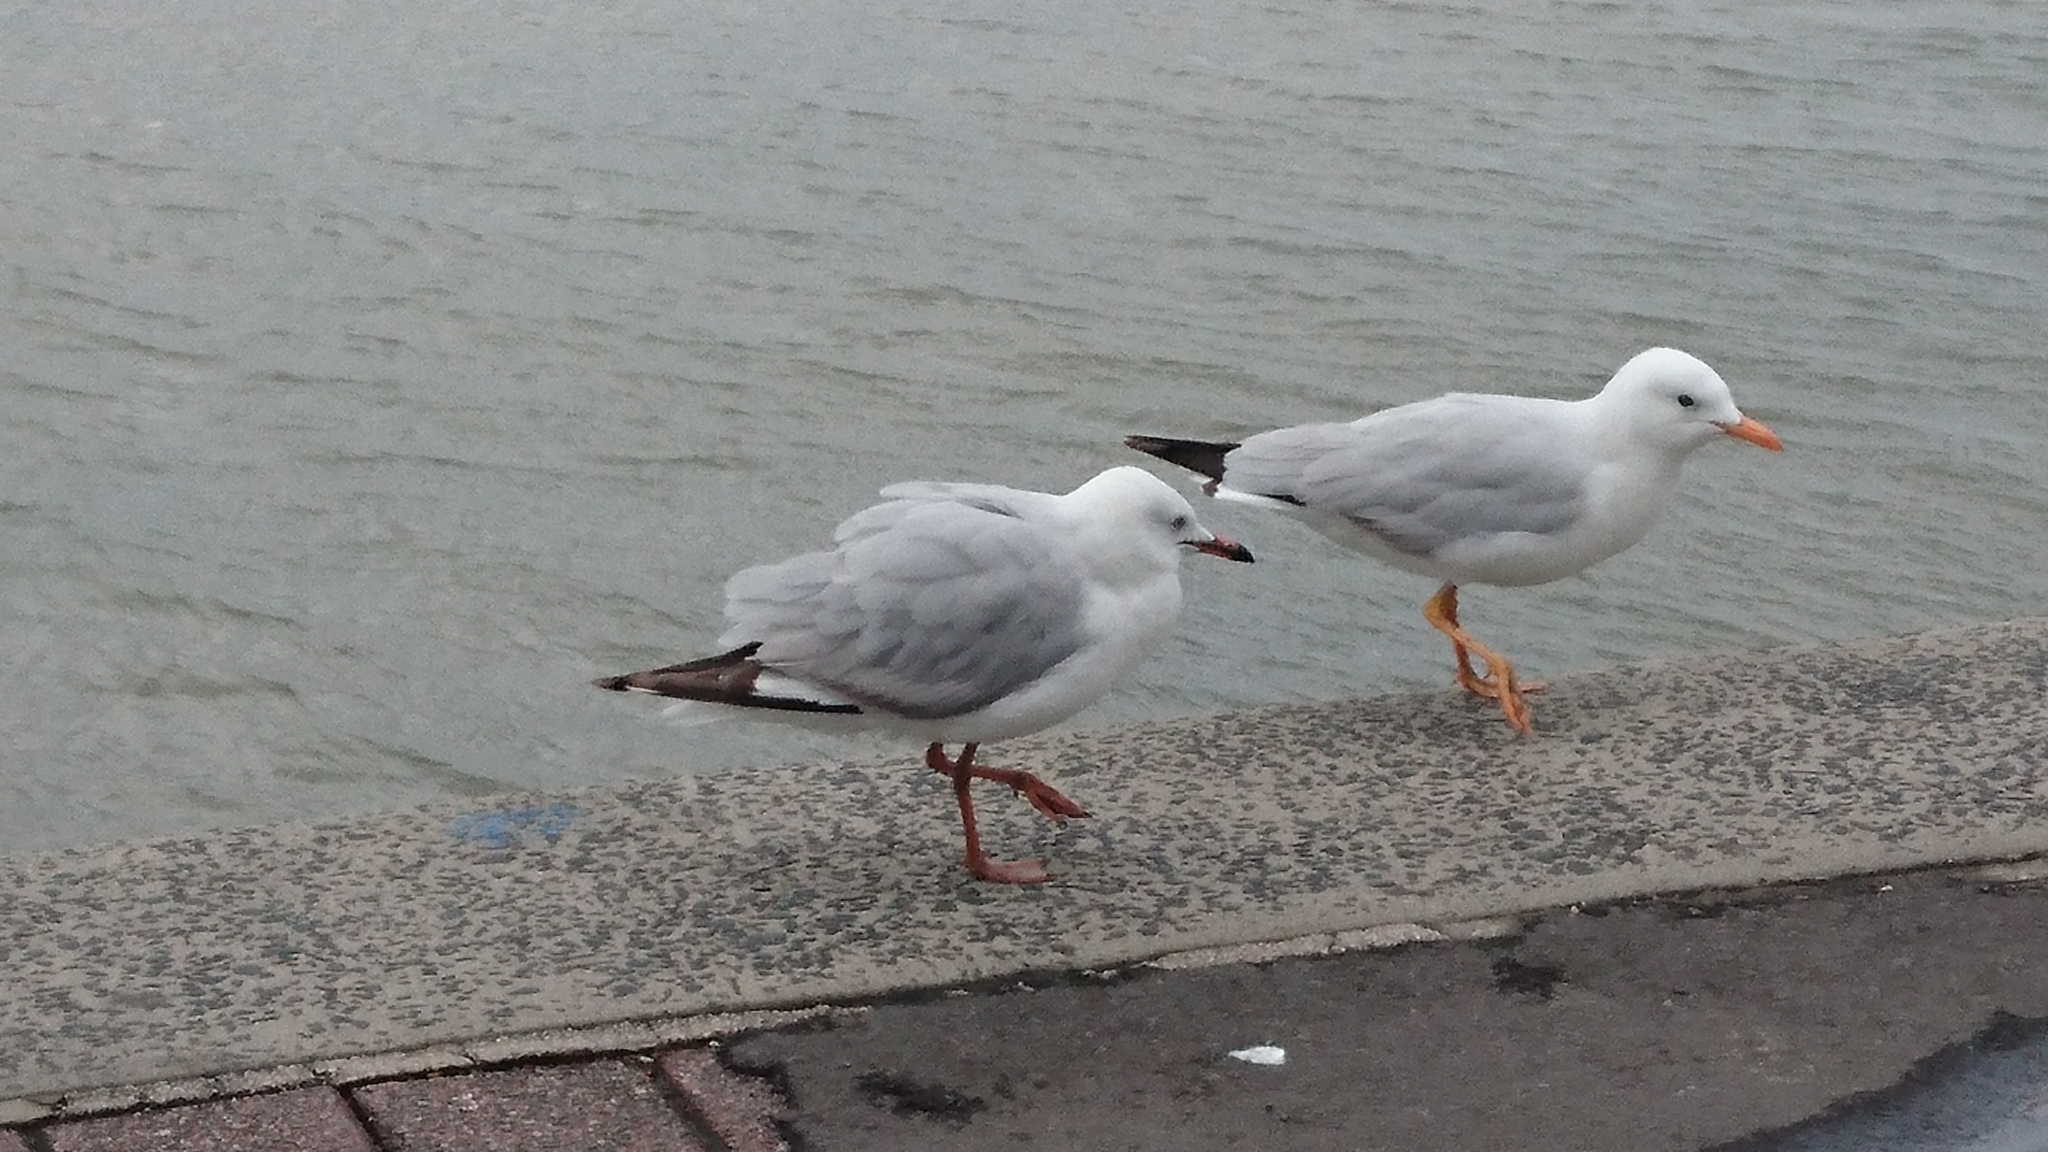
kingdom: Animalia
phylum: Chordata
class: Aves
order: Charadriiformes
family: Laridae
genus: Chroicocephalus
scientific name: Chroicocephalus novaehollandiae
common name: Silver gull
